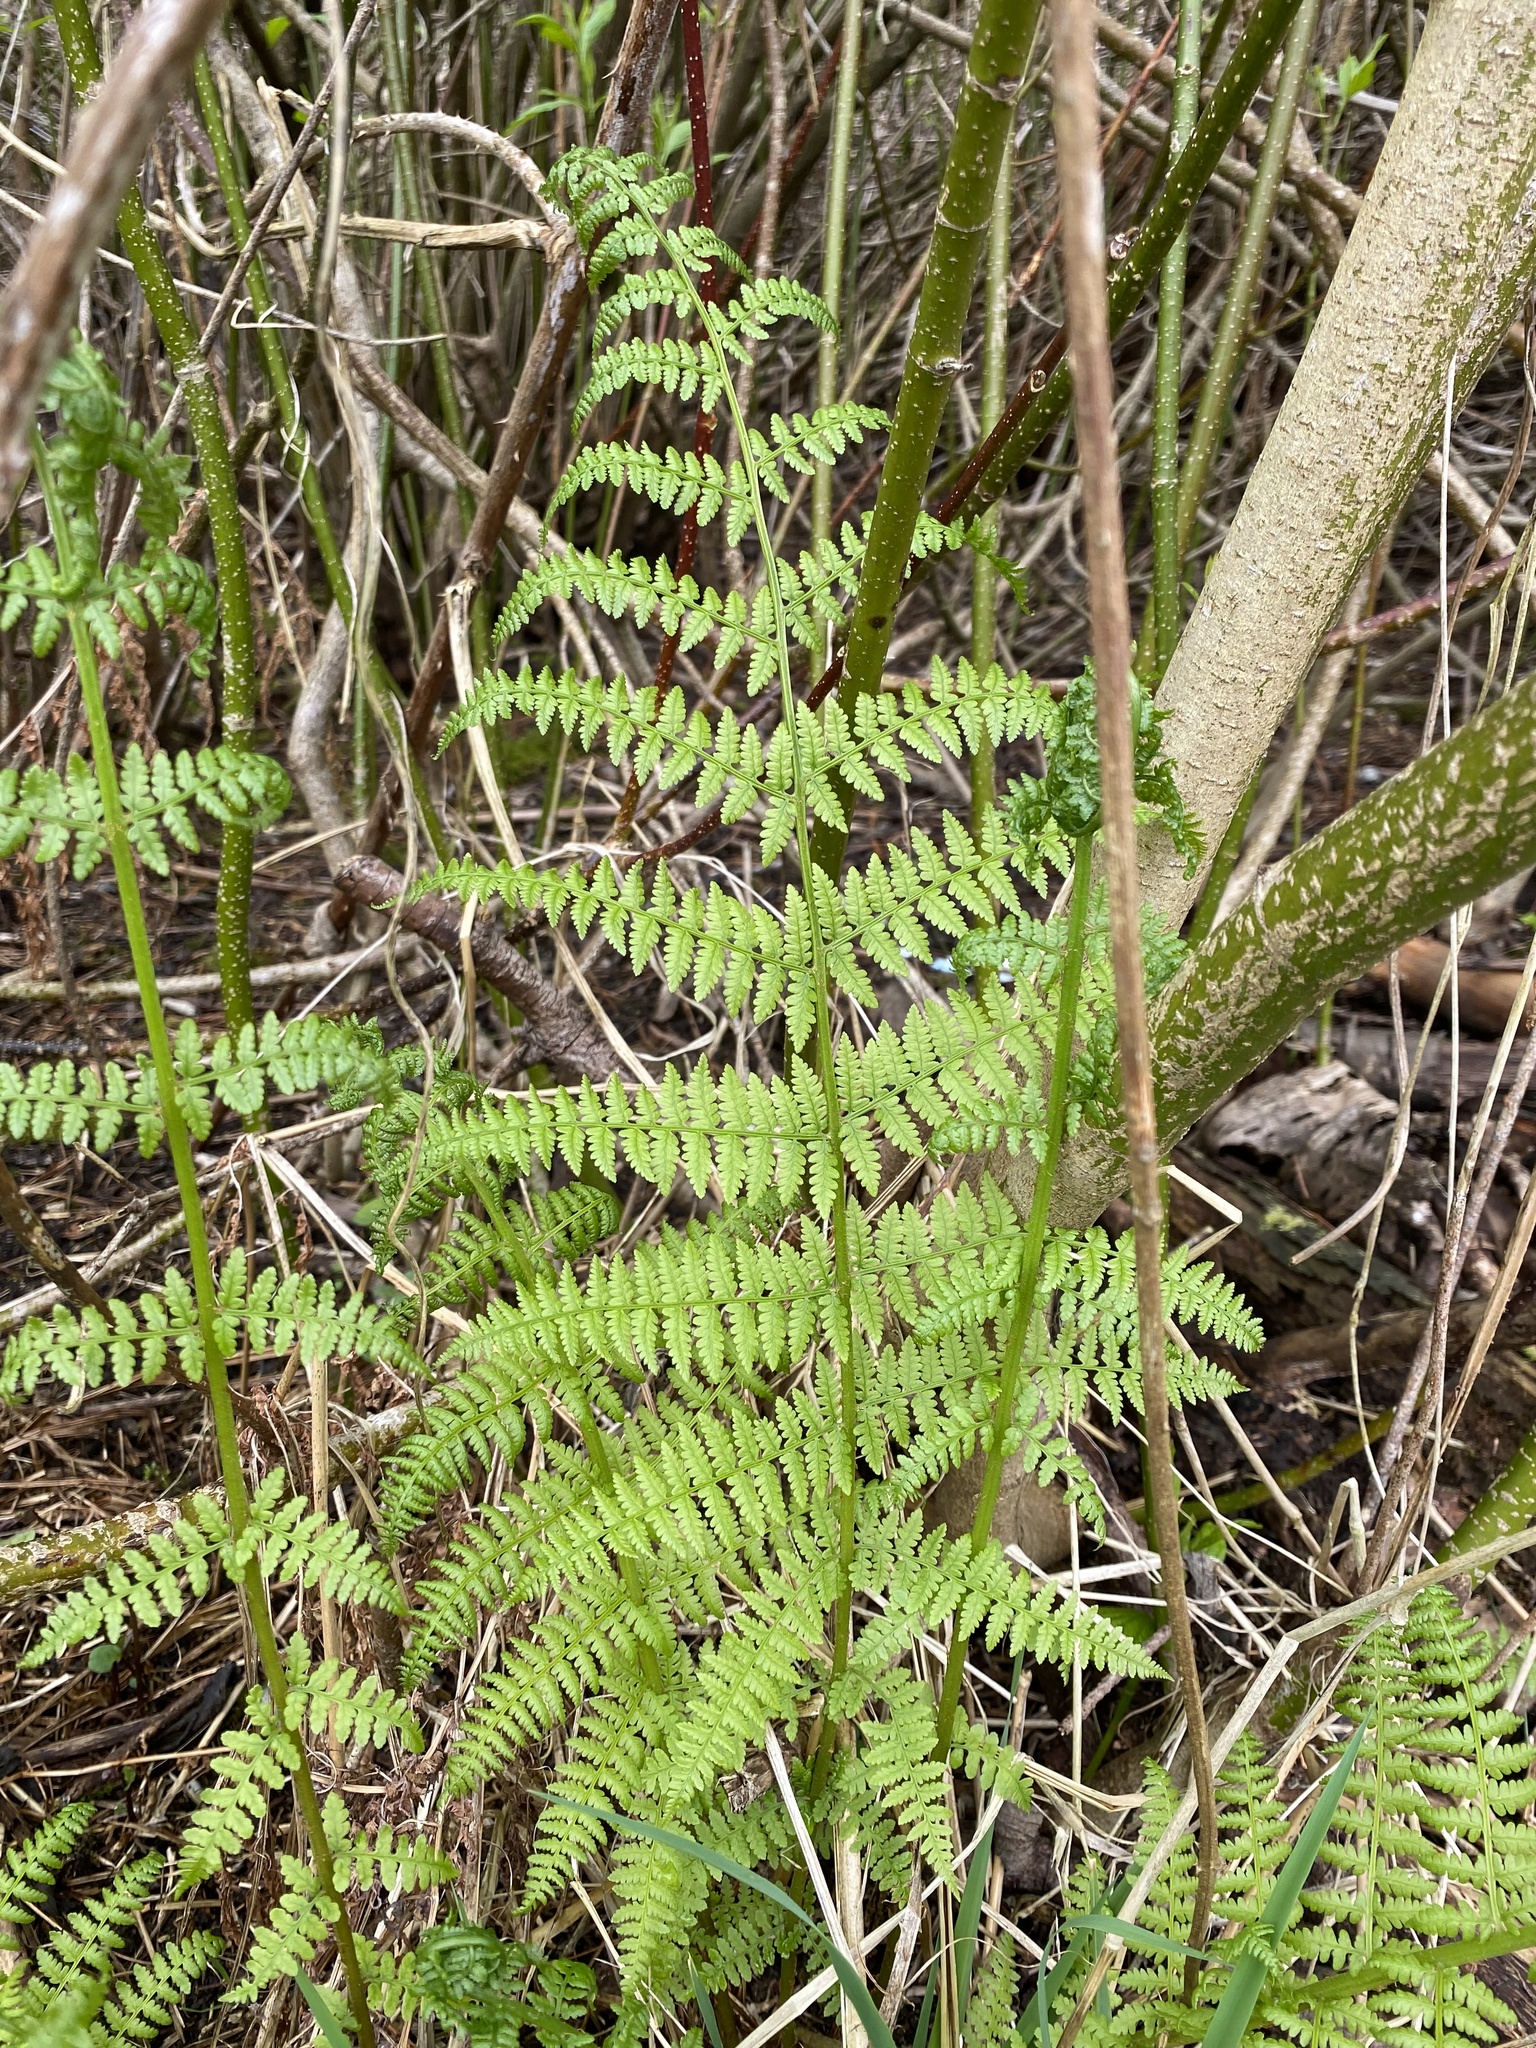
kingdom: Plantae
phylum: Tracheophyta
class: Polypodiopsida
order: Polypodiales
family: Athyriaceae
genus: Athyrium
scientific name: Athyrium filix-femina
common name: Lady fern
